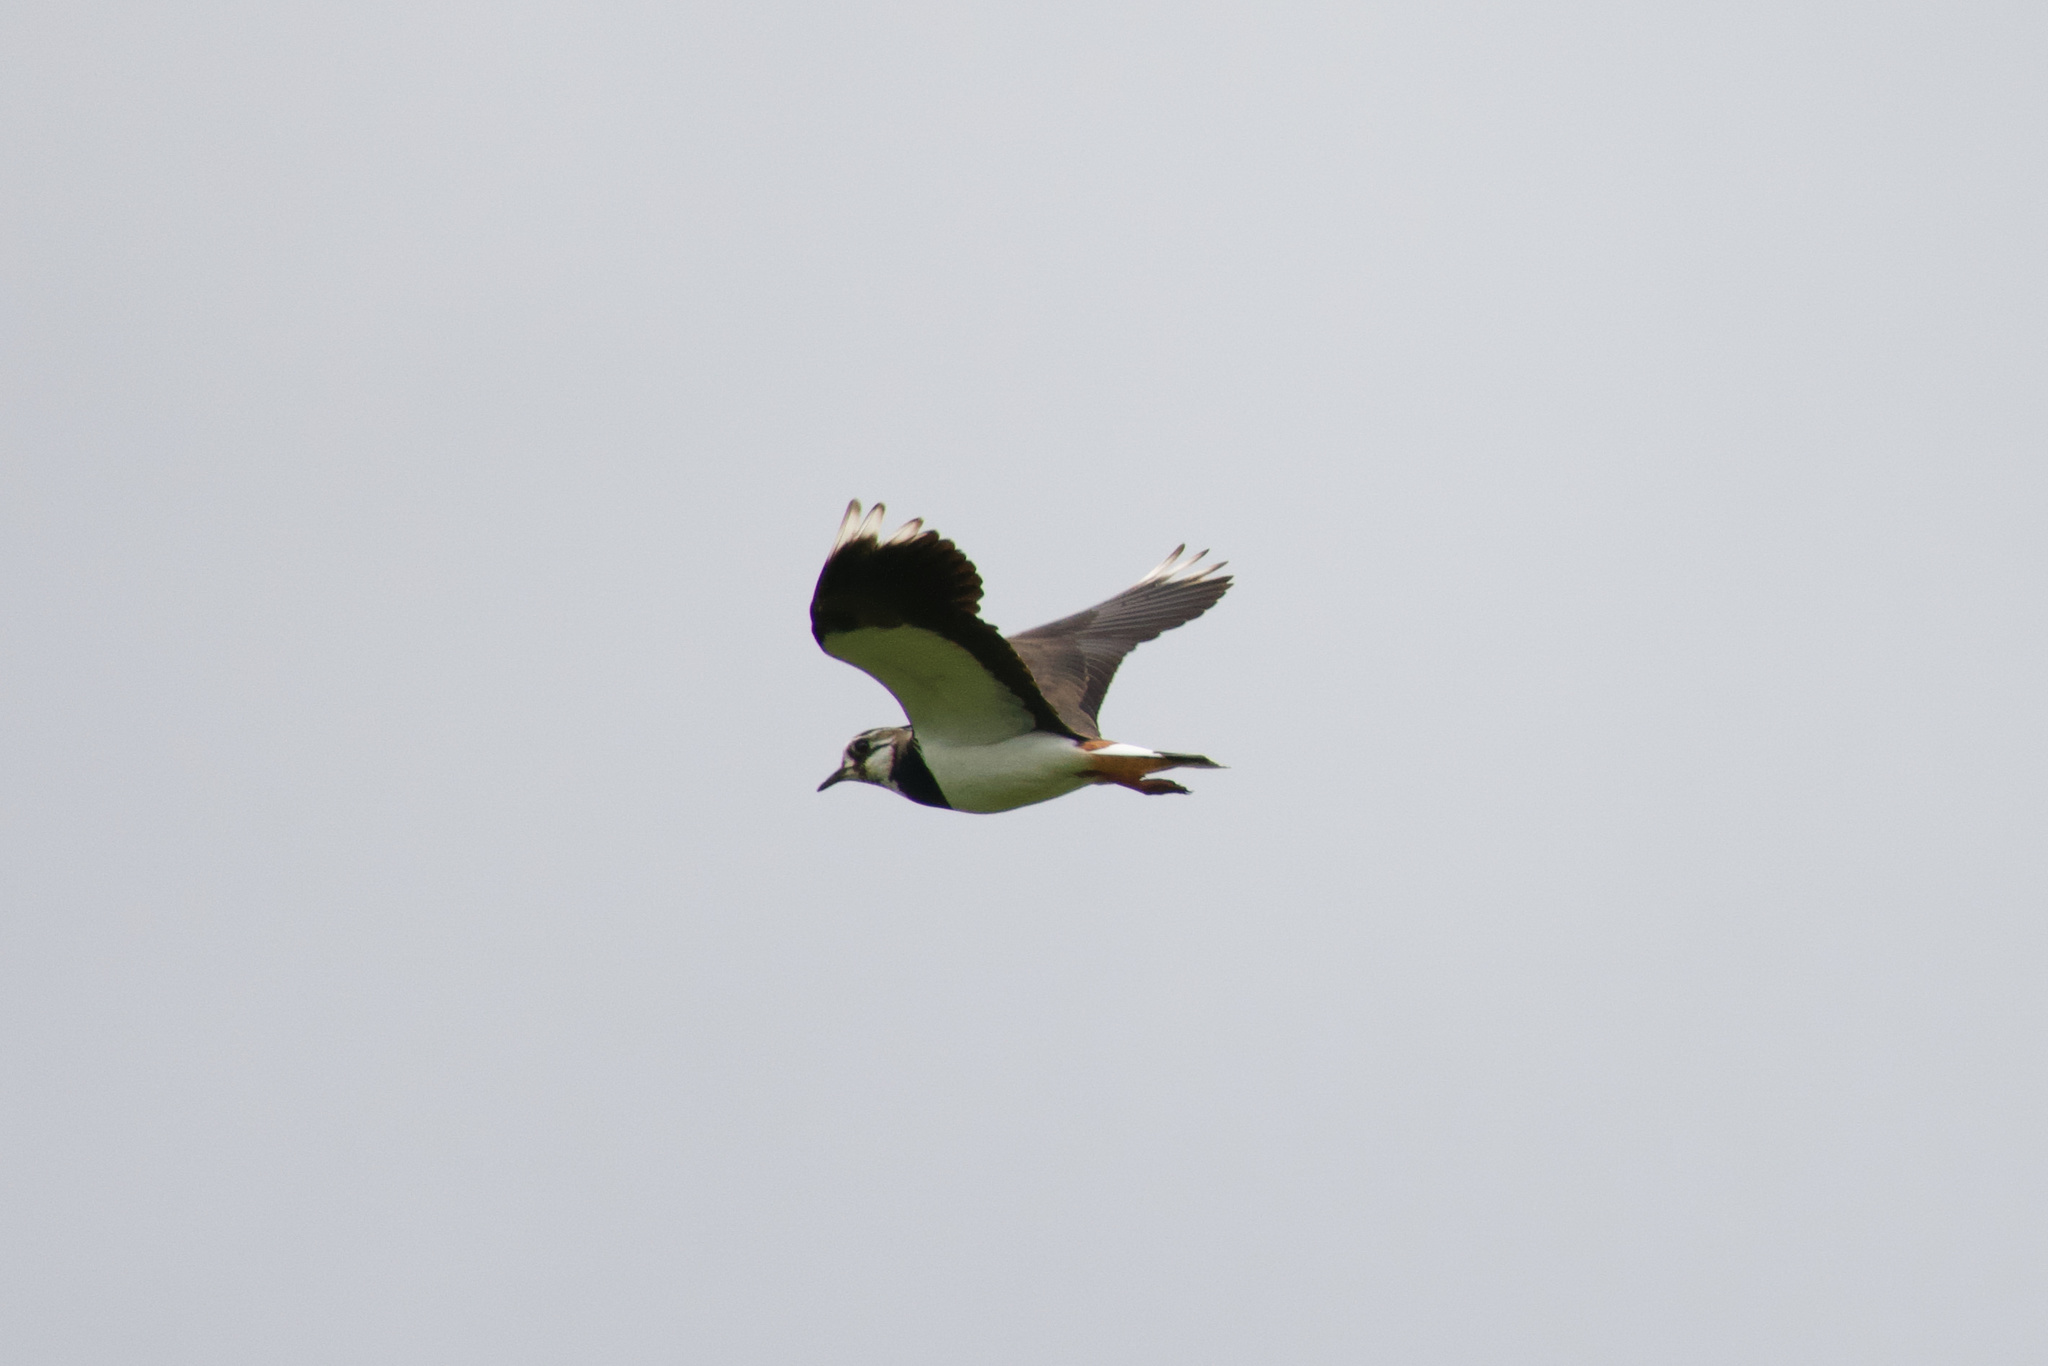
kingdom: Animalia
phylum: Chordata
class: Aves
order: Charadriiformes
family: Charadriidae
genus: Vanellus
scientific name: Vanellus vanellus
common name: Northern lapwing
